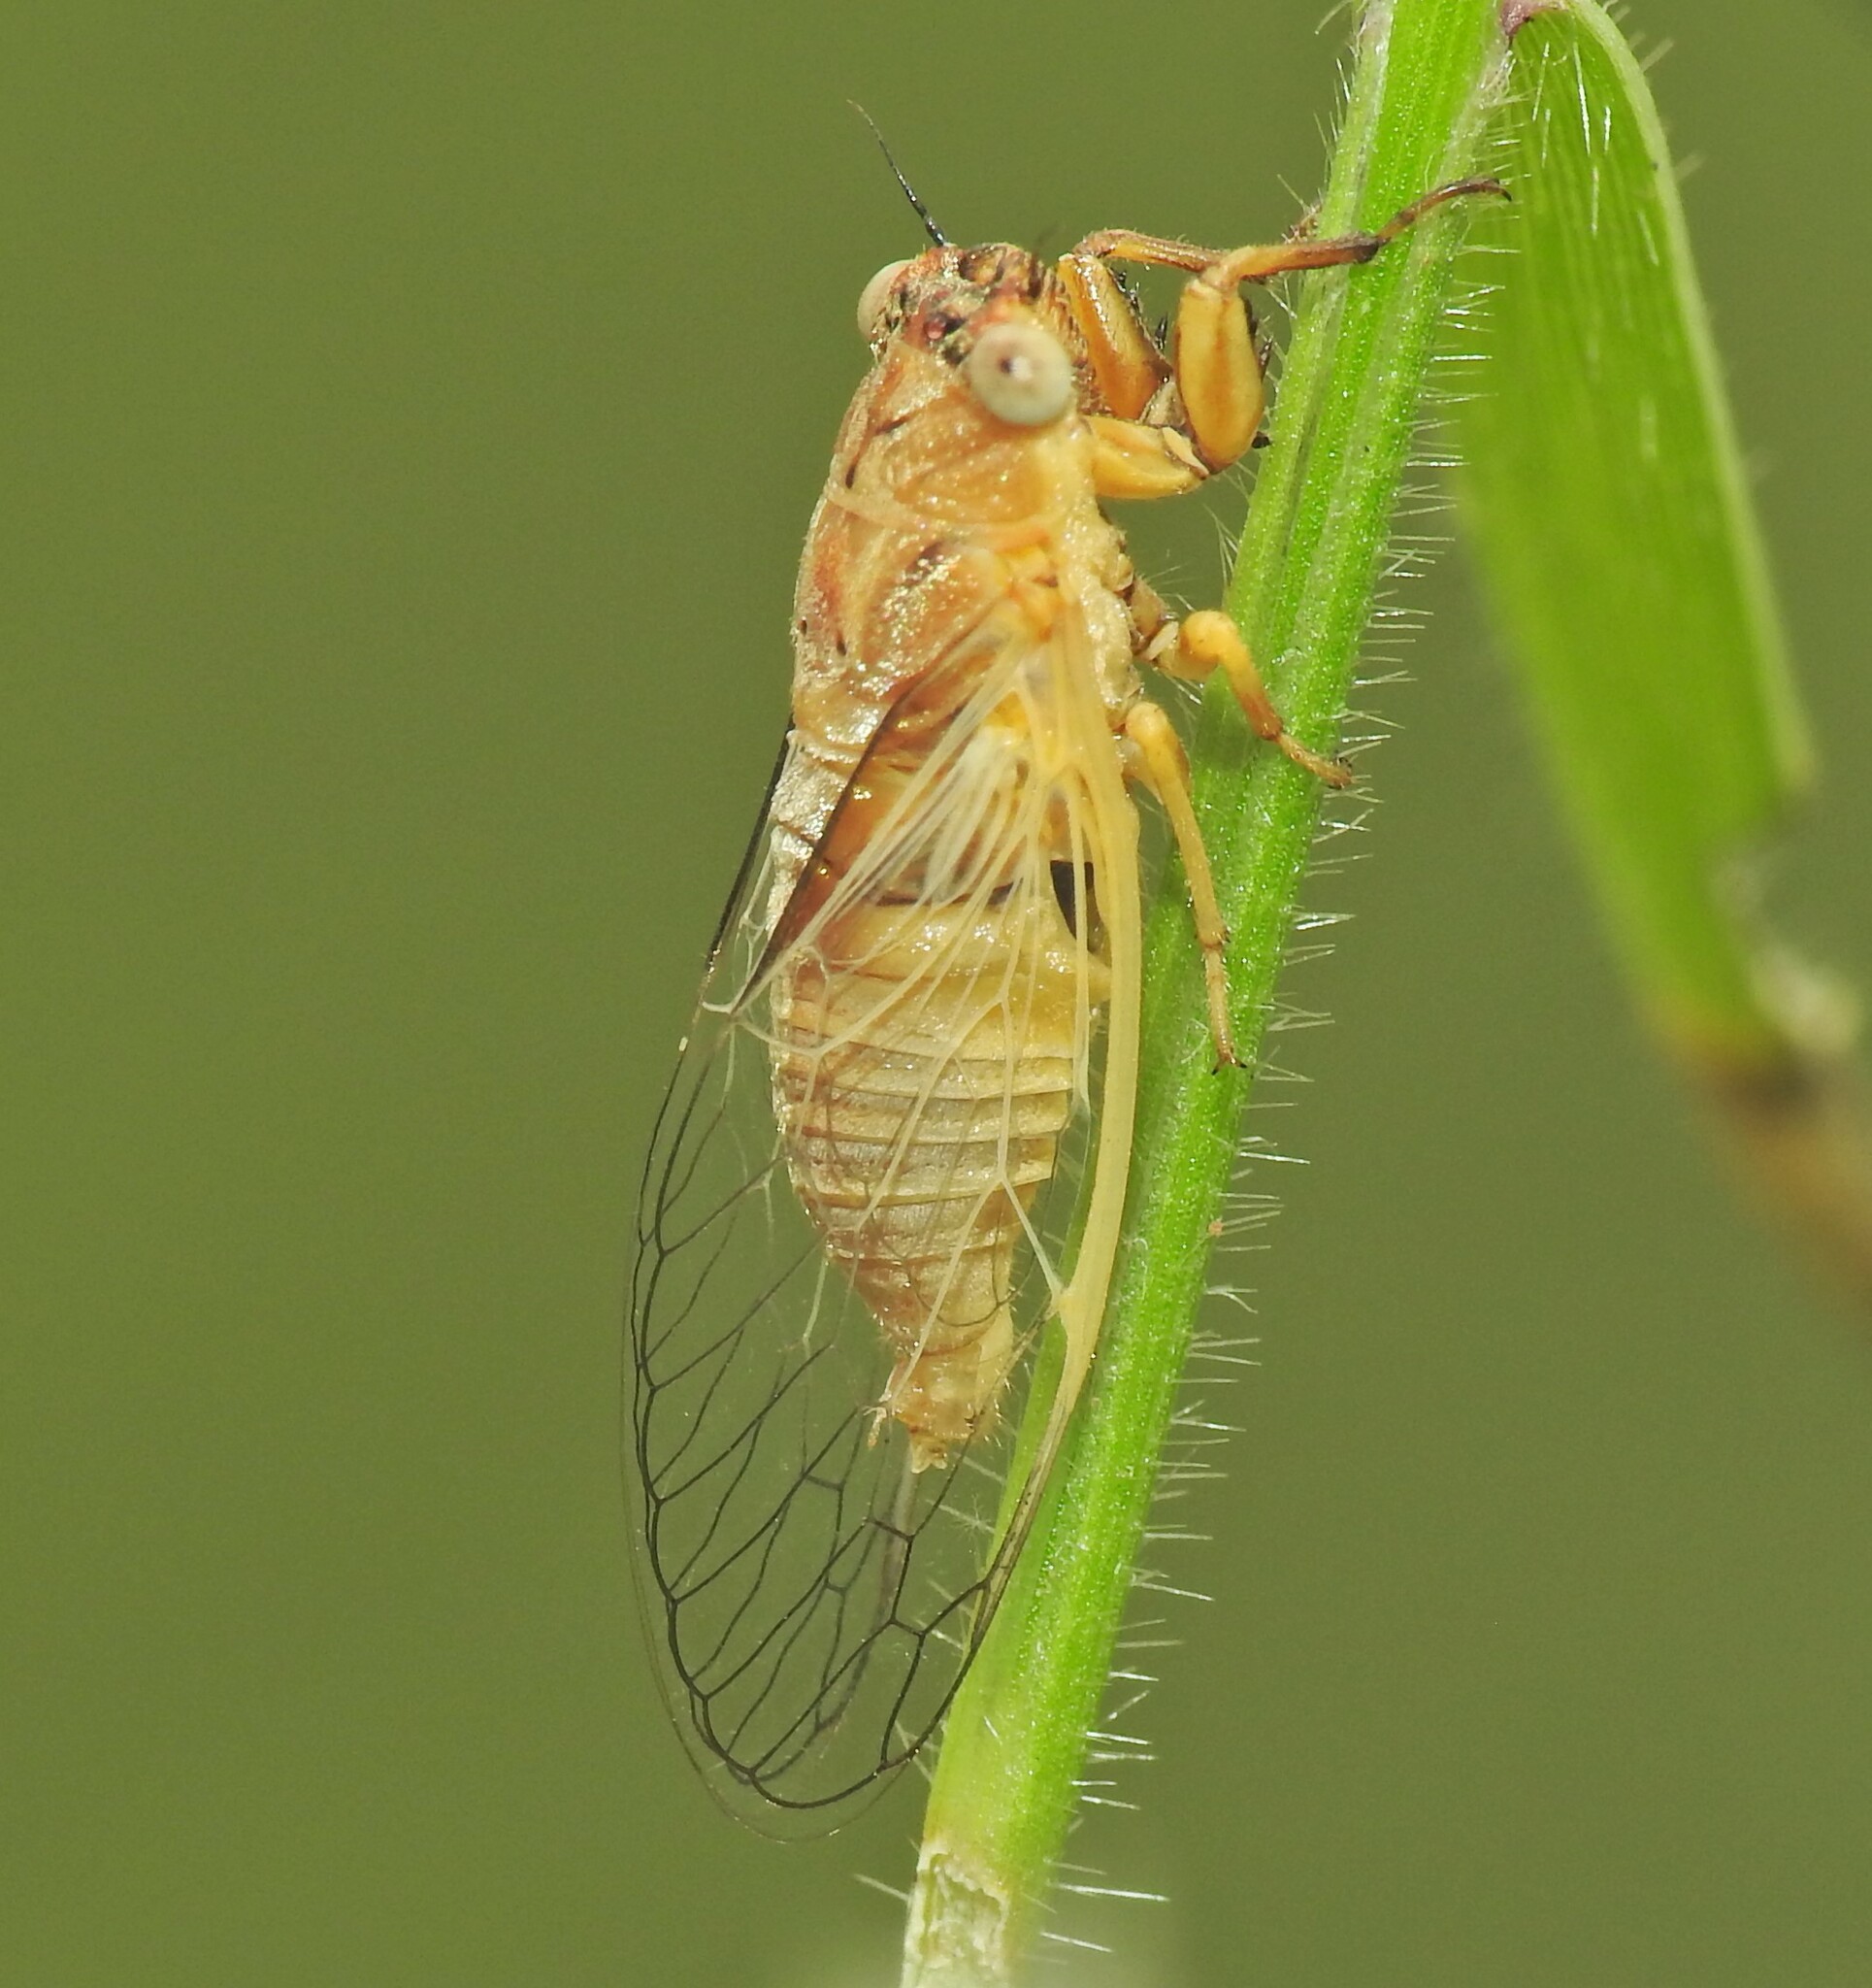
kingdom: Animalia
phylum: Arthropoda
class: Insecta
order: Hemiptera
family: Cicadidae
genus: Urabunana
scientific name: Urabunana sericeivitta
